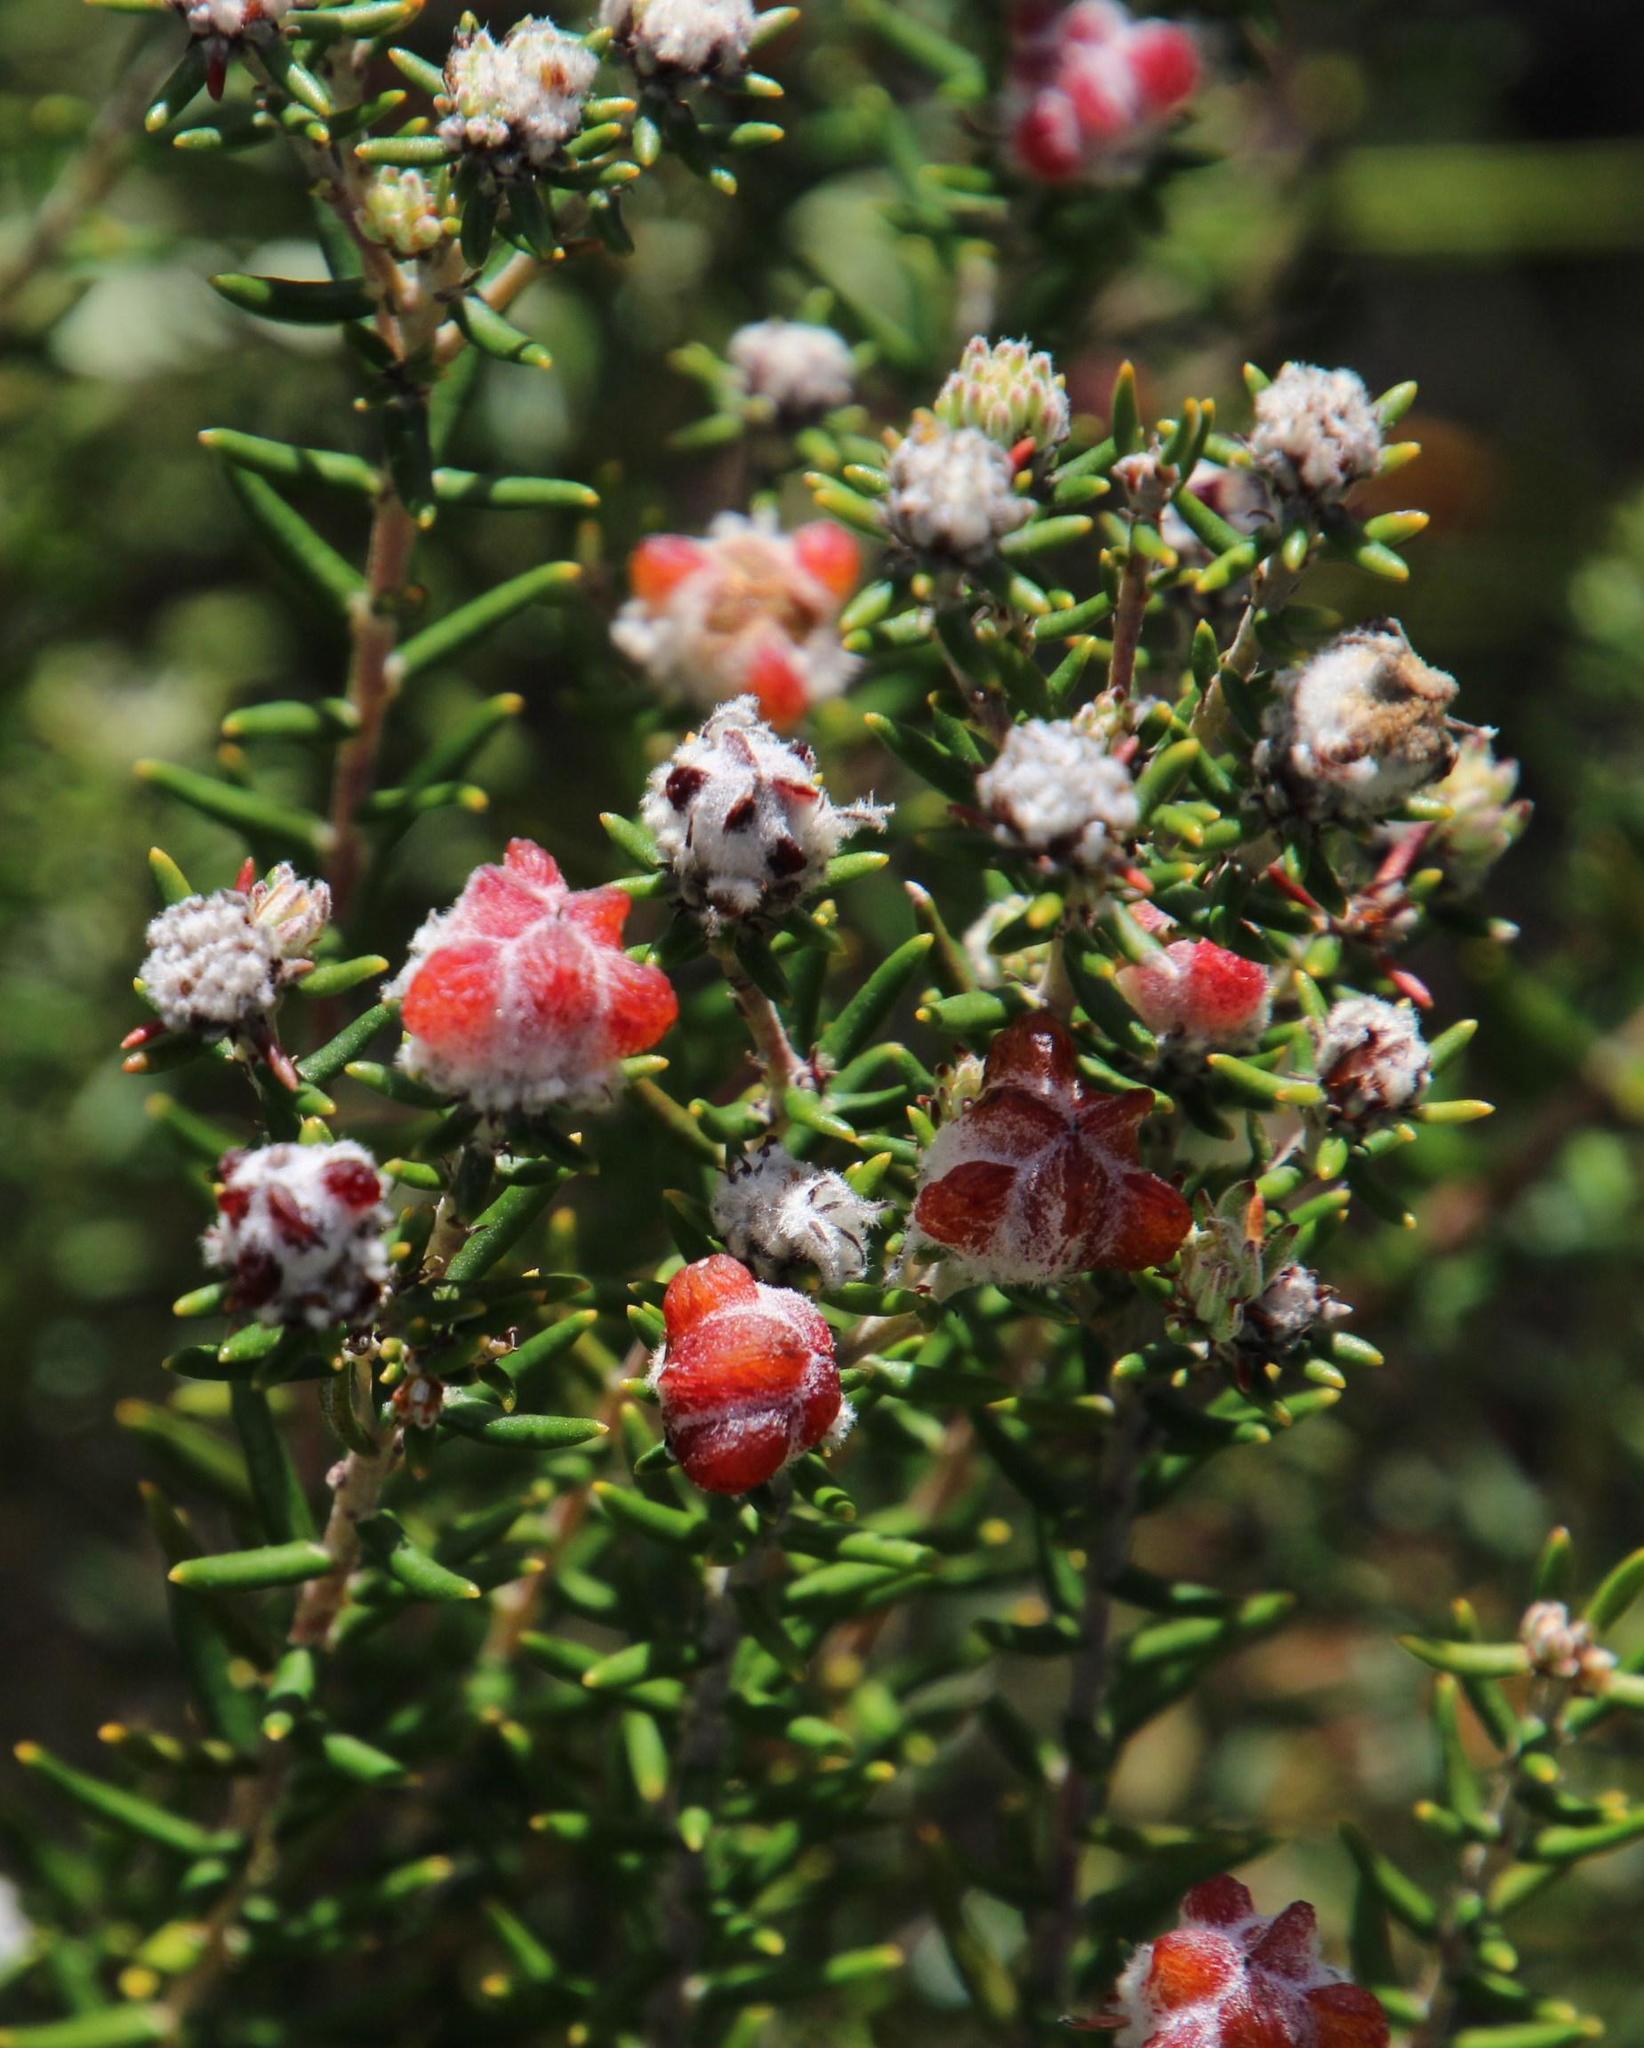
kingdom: Plantae
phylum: Tracheophyta
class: Magnoliopsida
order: Rosales
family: Rhamnaceae
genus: Trichocephalus
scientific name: Trichocephalus stipularis
